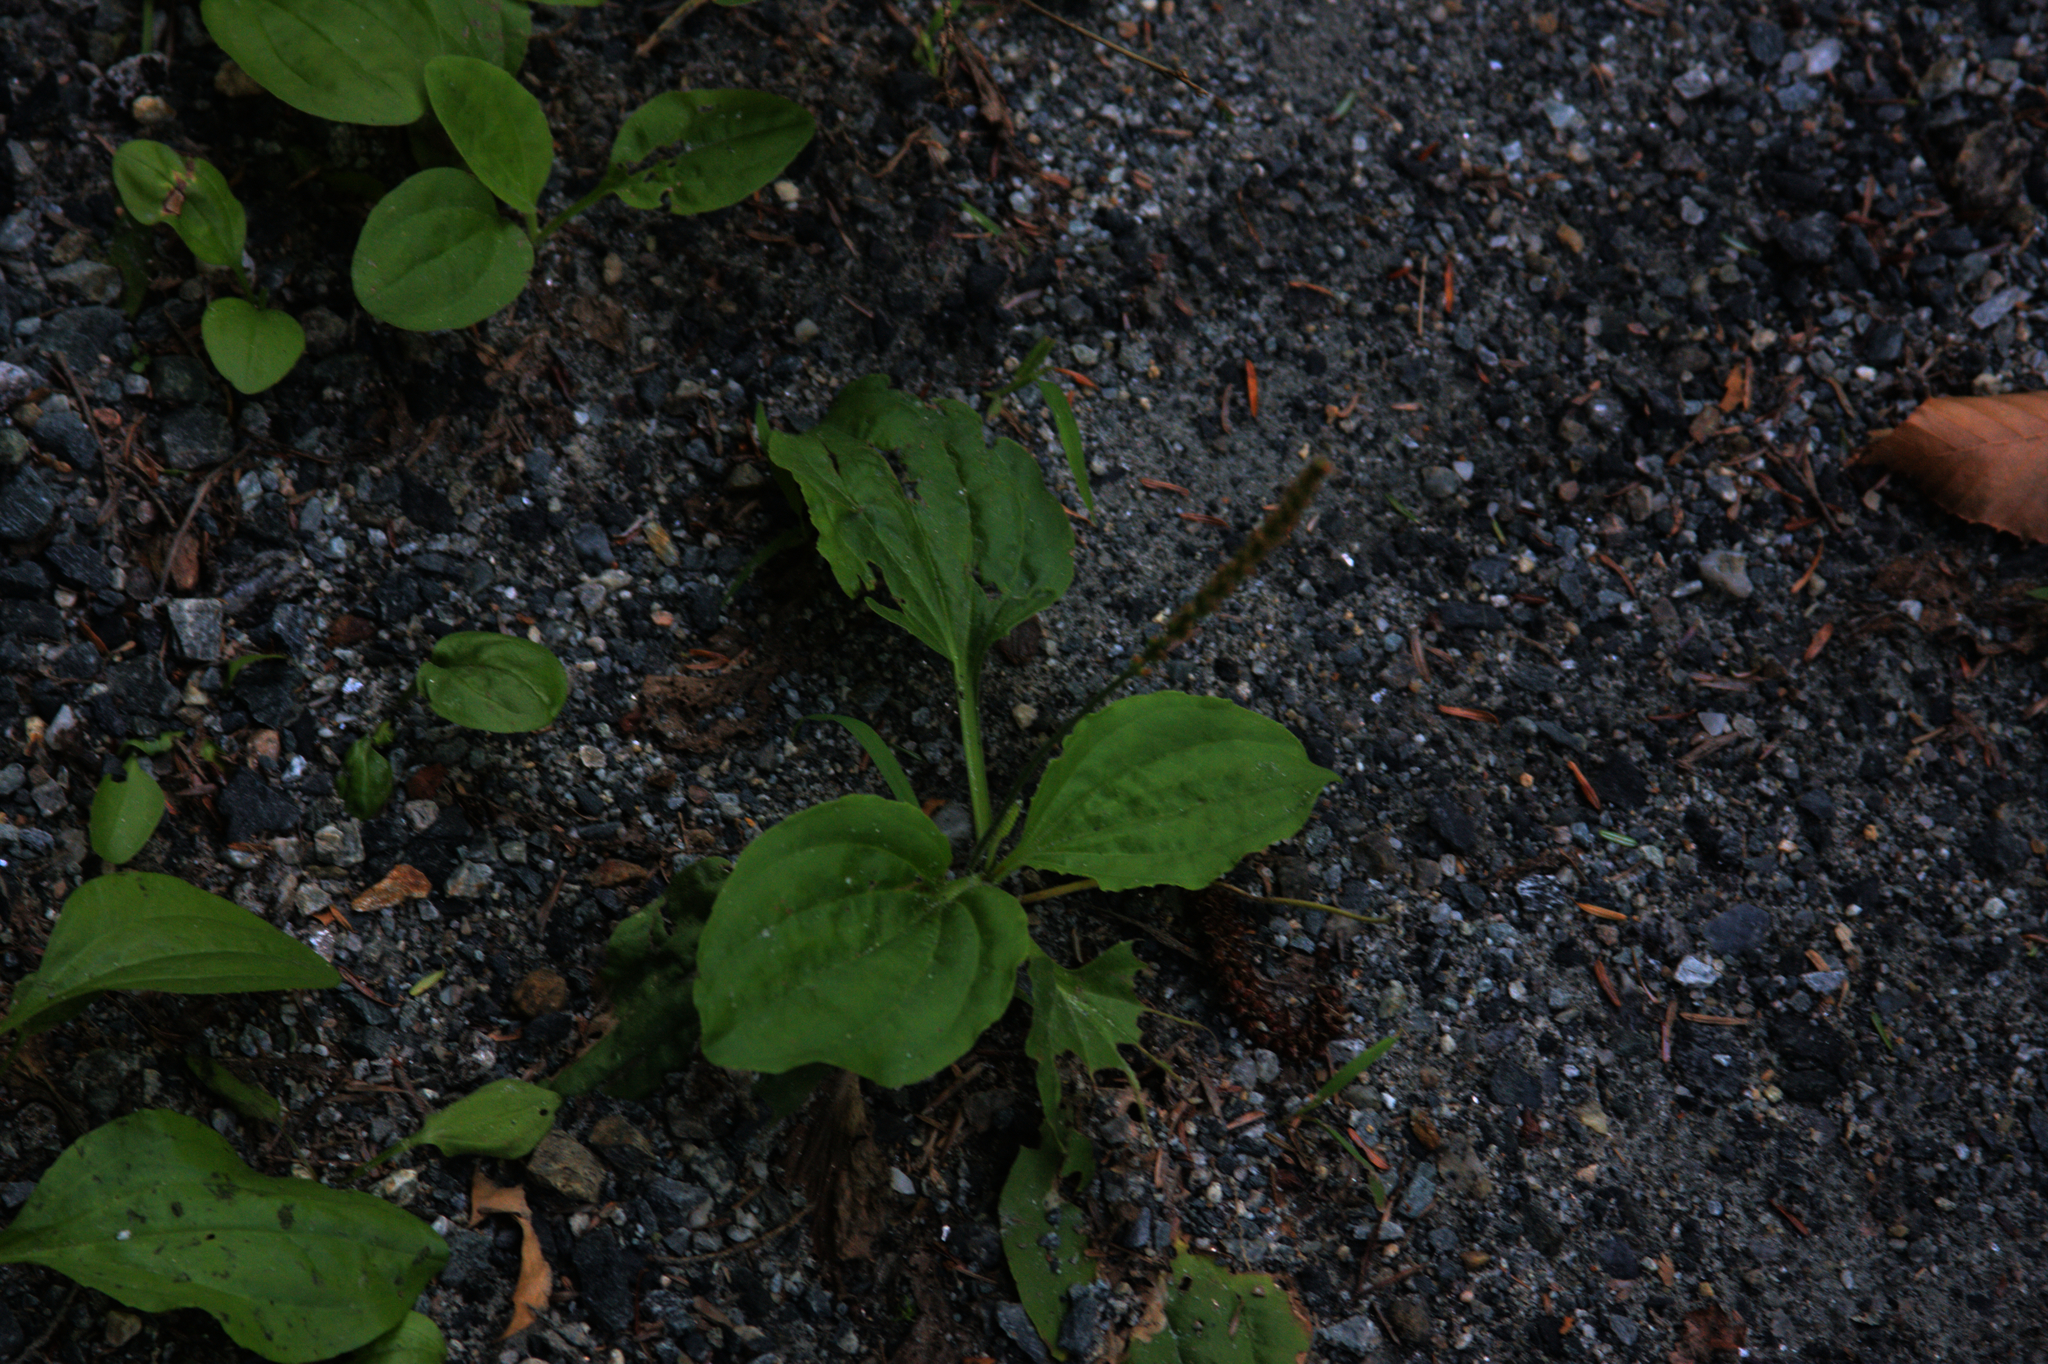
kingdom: Plantae
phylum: Tracheophyta
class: Magnoliopsida
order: Lamiales
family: Plantaginaceae
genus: Plantago
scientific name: Plantago major
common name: Common plantain
